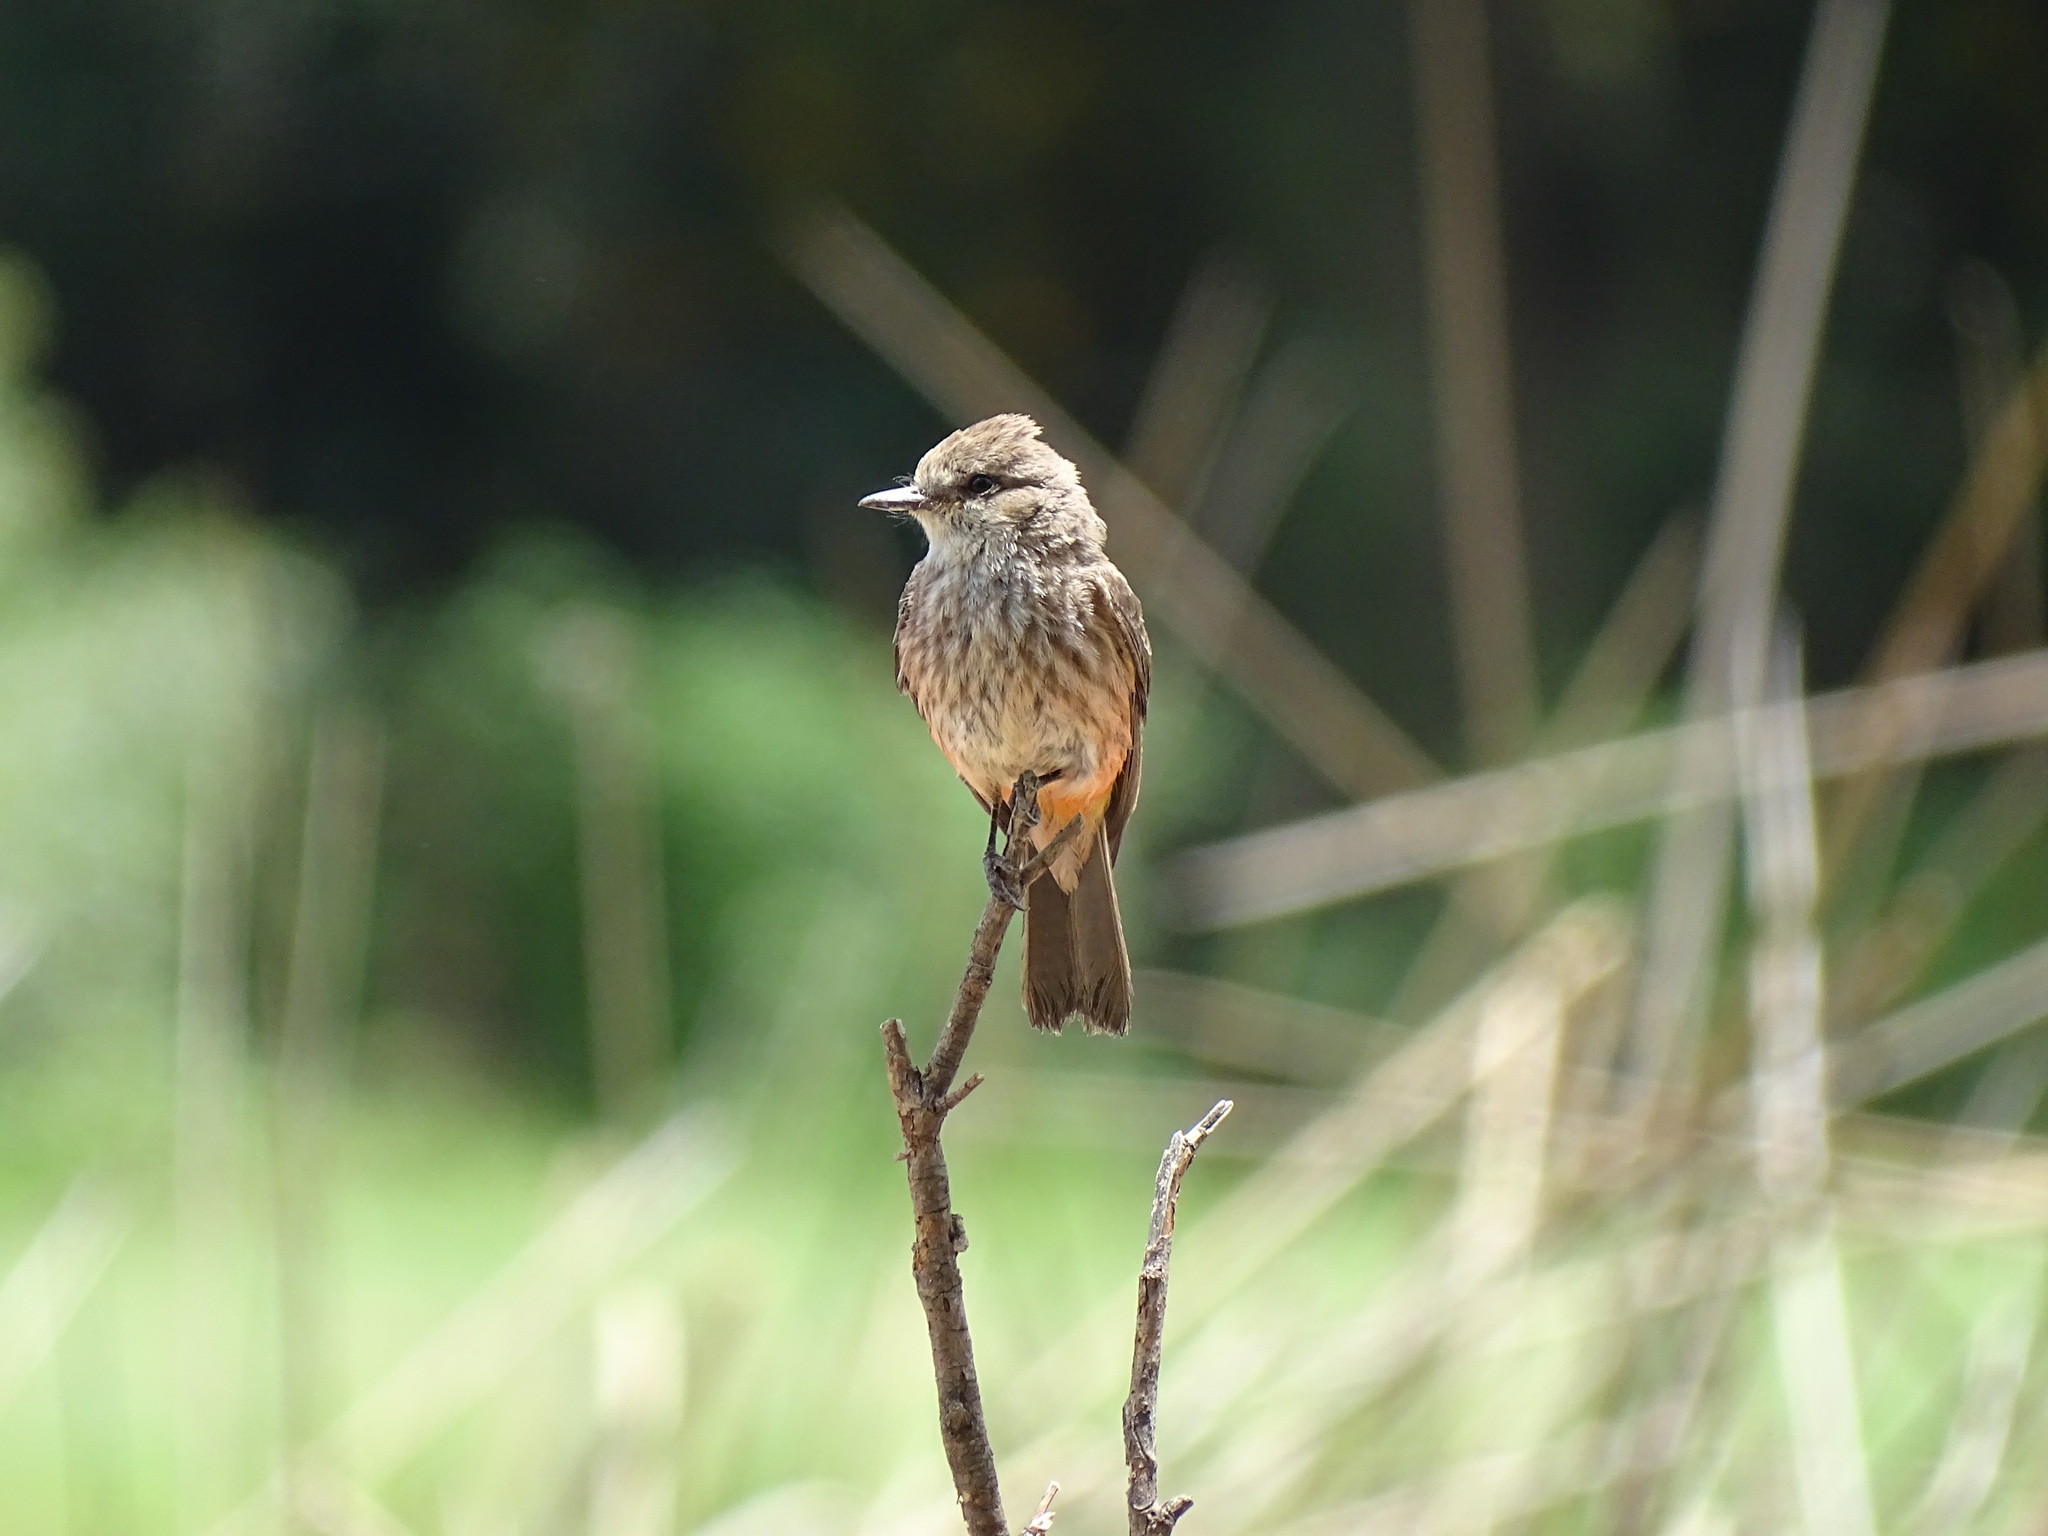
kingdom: Animalia
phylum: Chordata
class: Aves
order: Passeriformes
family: Tyrannidae
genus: Pyrocephalus
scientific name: Pyrocephalus rubinus
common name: Vermilion flycatcher
